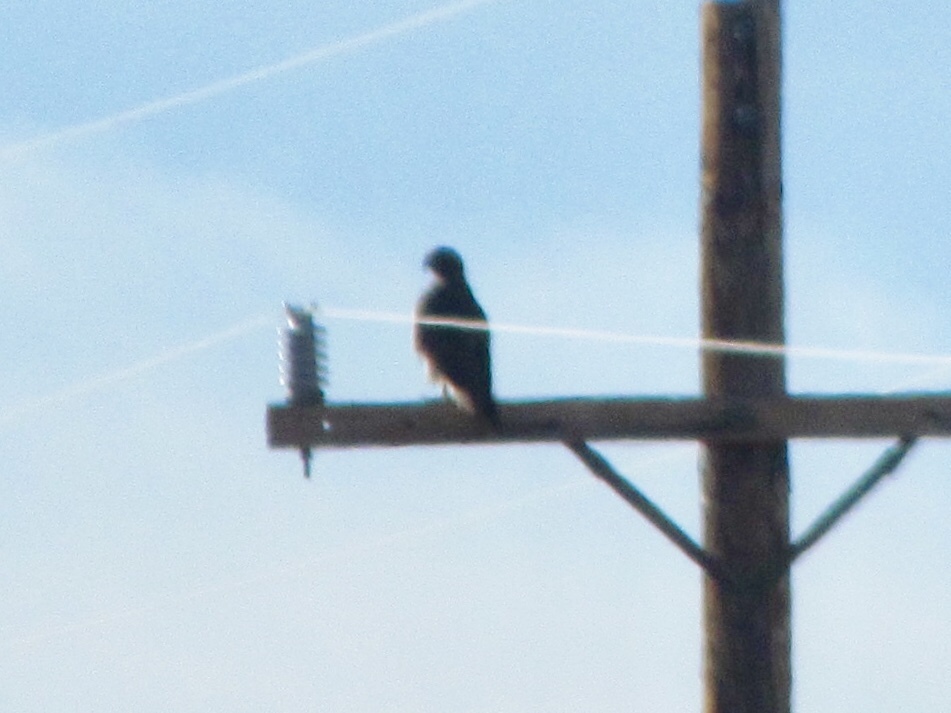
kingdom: Animalia
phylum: Chordata
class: Aves
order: Accipitriformes
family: Accipitridae
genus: Buteo
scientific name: Buteo jamaicensis
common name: Red-tailed hawk
